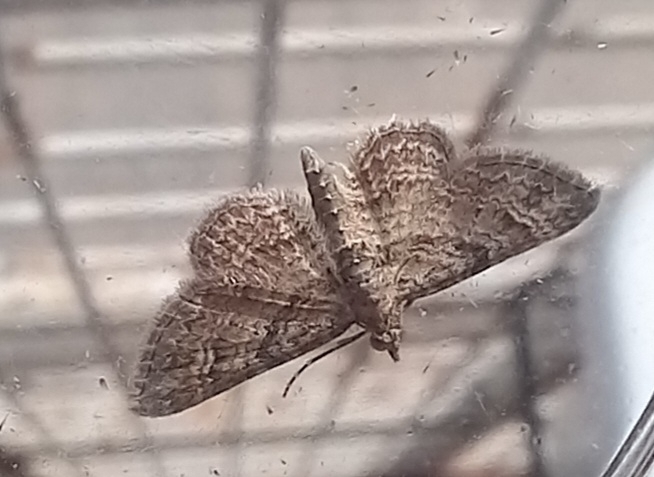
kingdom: Animalia
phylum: Arthropoda
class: Insecta
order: Lepidoptera
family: Geometridae
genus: Gymnoscelis
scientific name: Gymnoscelis rufifasciata
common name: Double-striped pug
